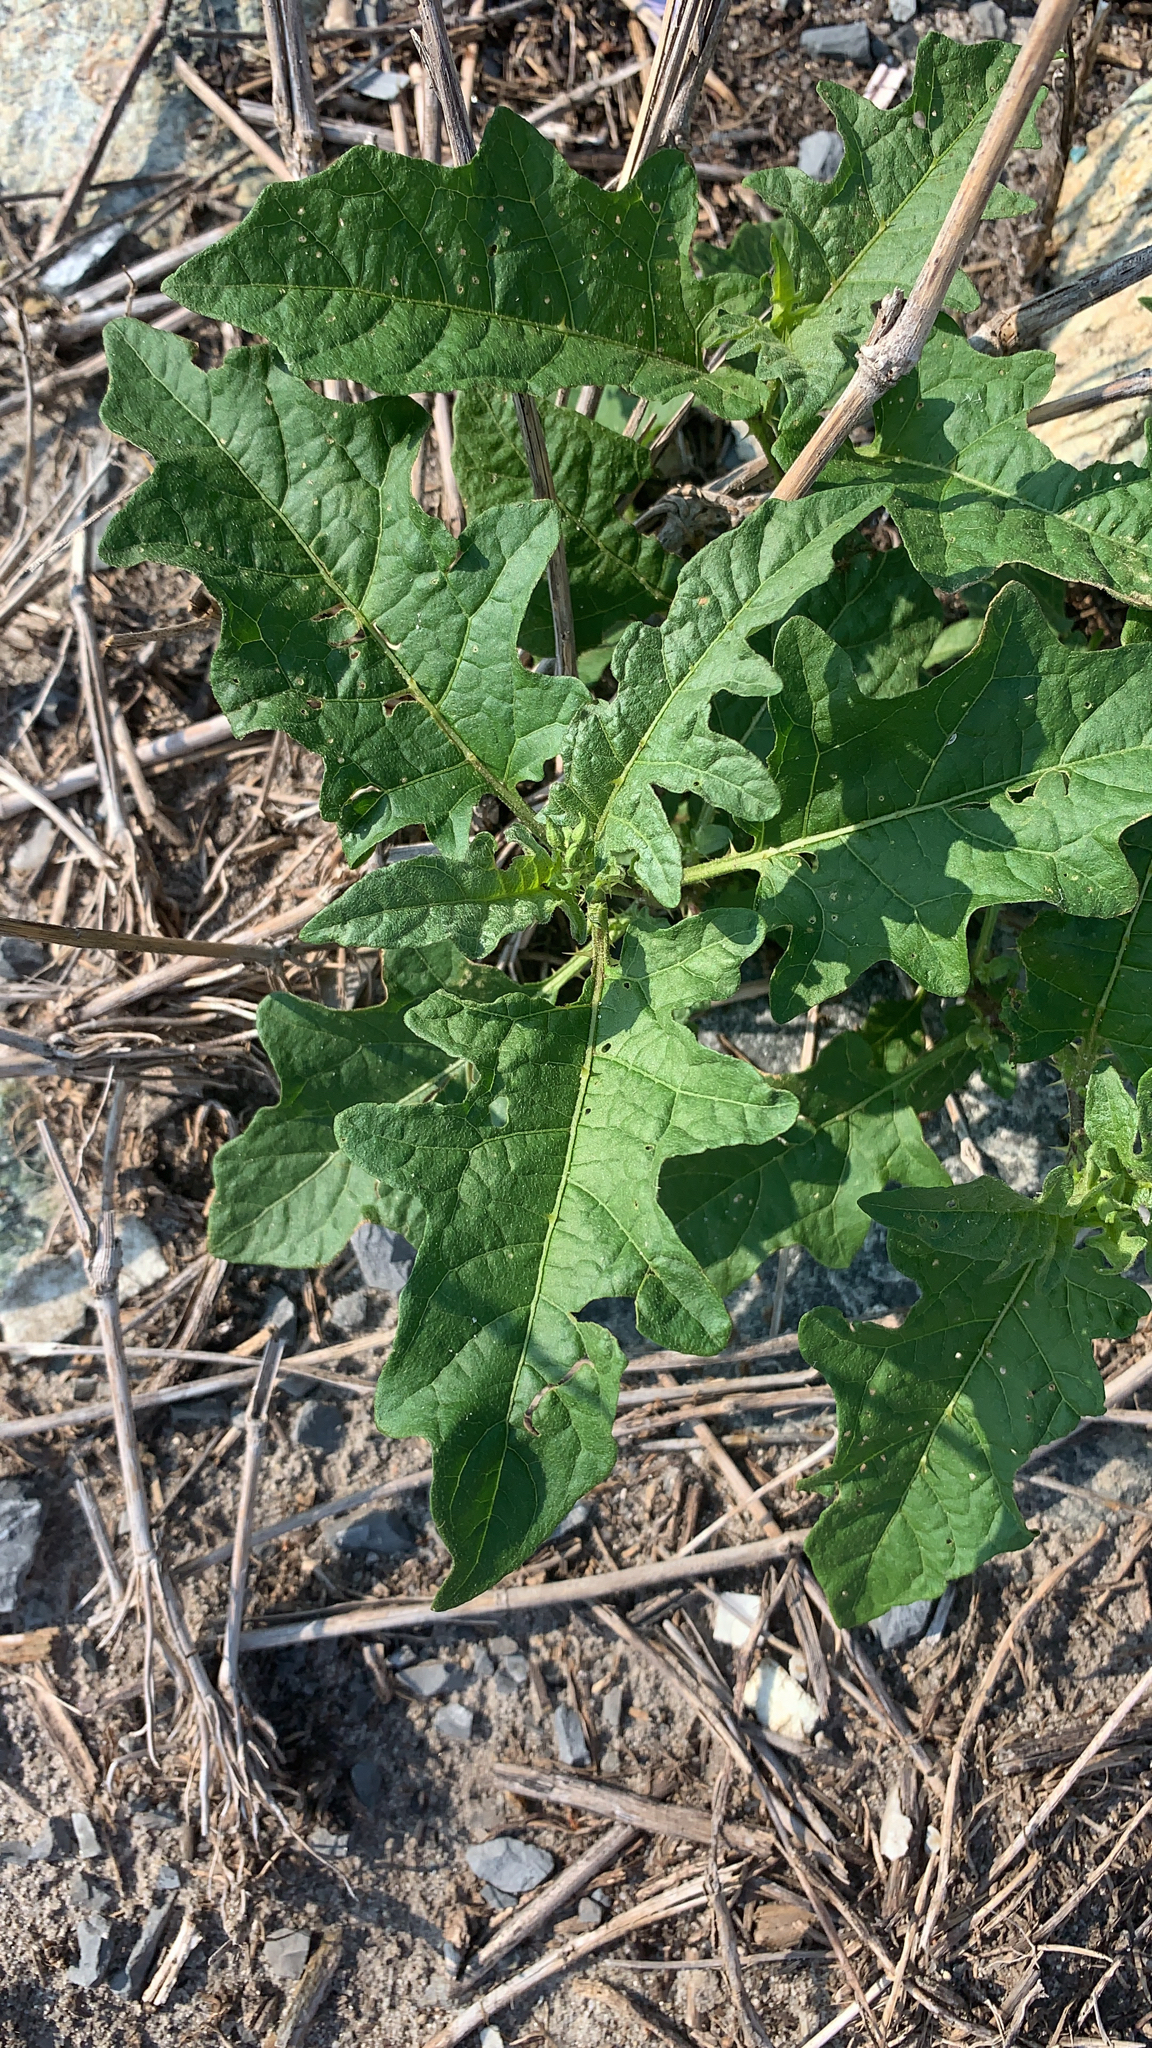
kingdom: Plantae
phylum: Tracheophyta
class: Magnoliopsida
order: Solanales
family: Solanaceae
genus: Solanum
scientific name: Solanum carolinense
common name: Horse-nettle
